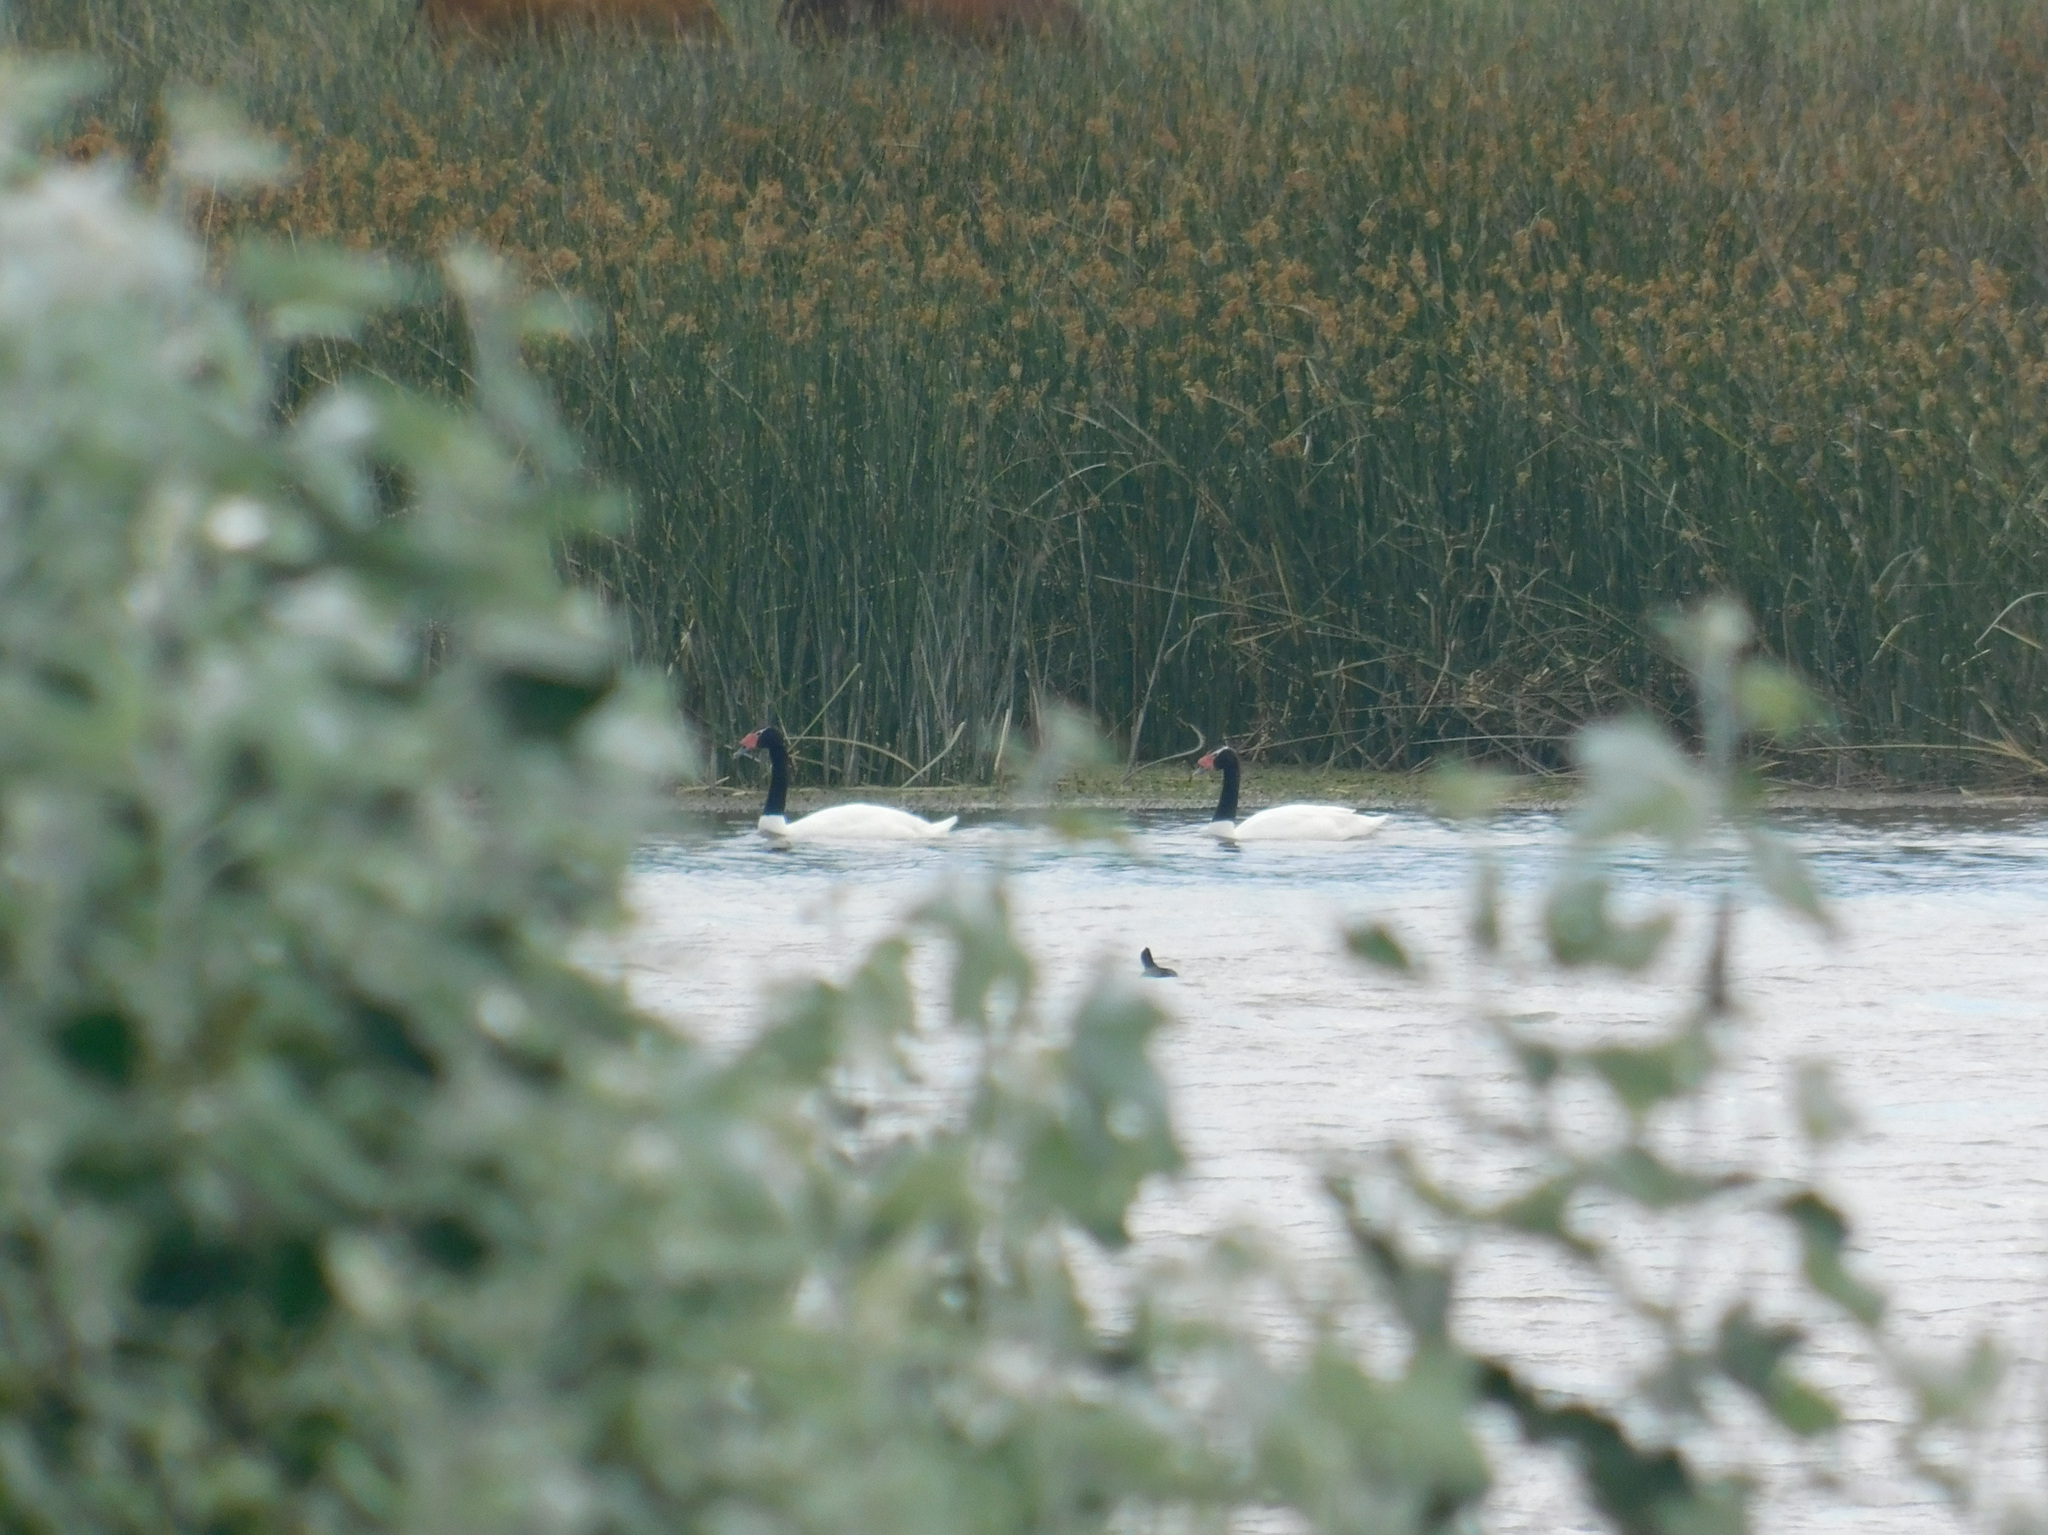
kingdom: Animalia
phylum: Chordata
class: Aves
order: Anseriformes
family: Anatidae
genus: Cygnus
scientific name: Cygnus melancoryphus
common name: Black-necked swan
